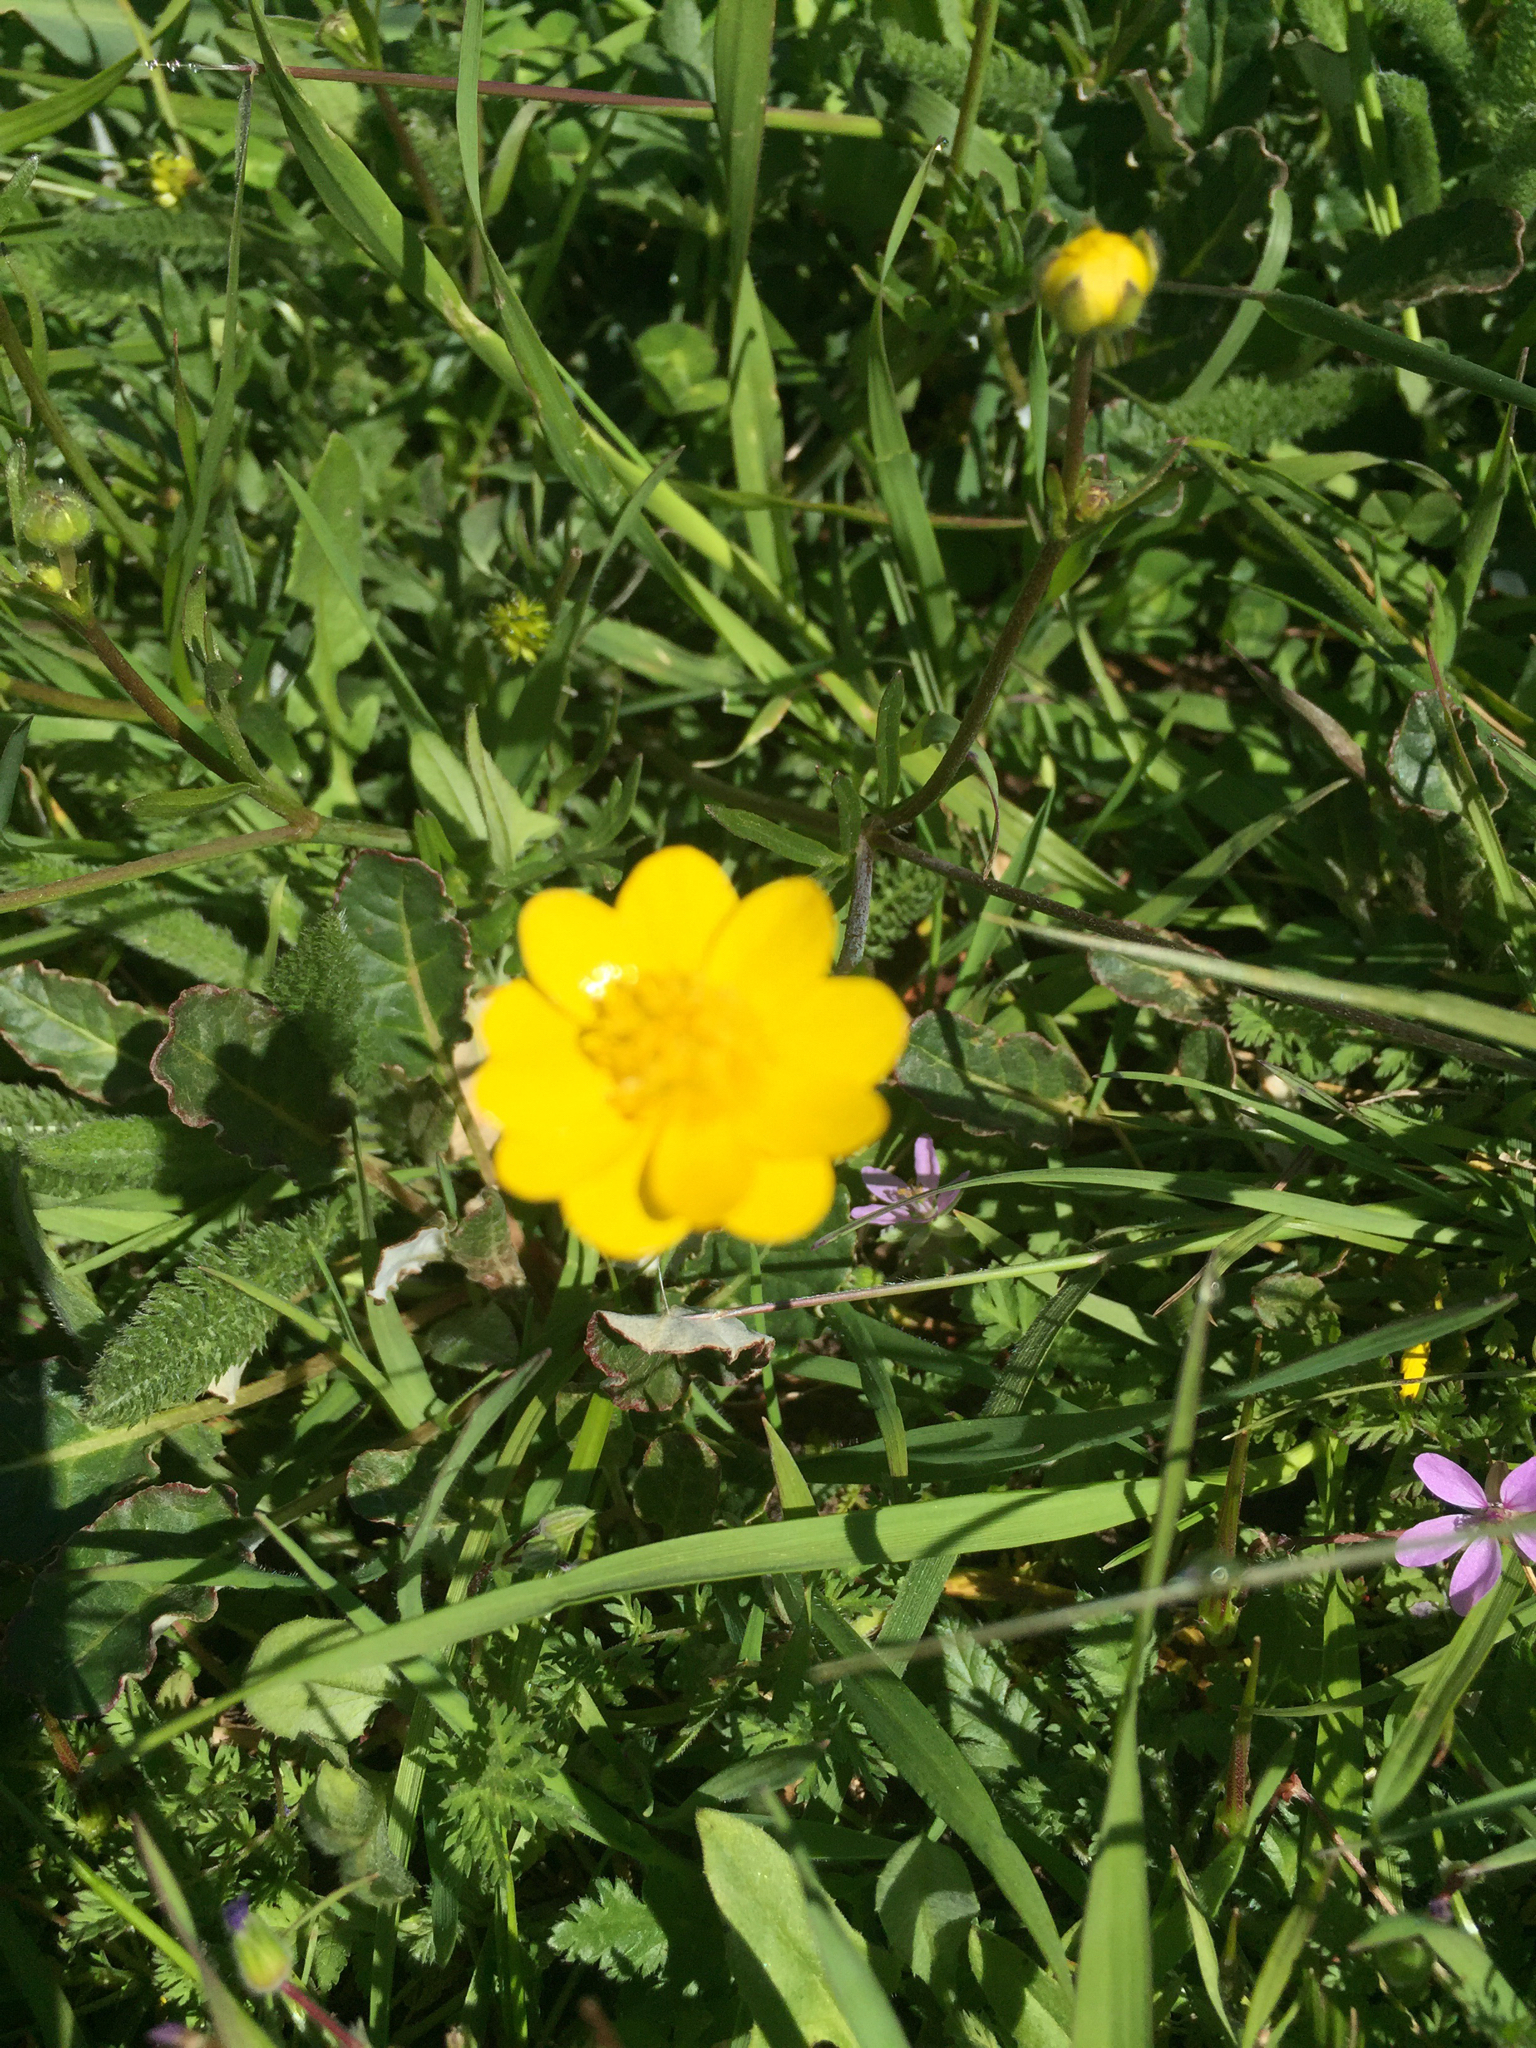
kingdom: Plantae
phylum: Tracheophyta
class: Magnoliopsida
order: Ranunculales
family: Ranunculaceae
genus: Ranunculus
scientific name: Ranunculus californicus
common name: California buttercup
